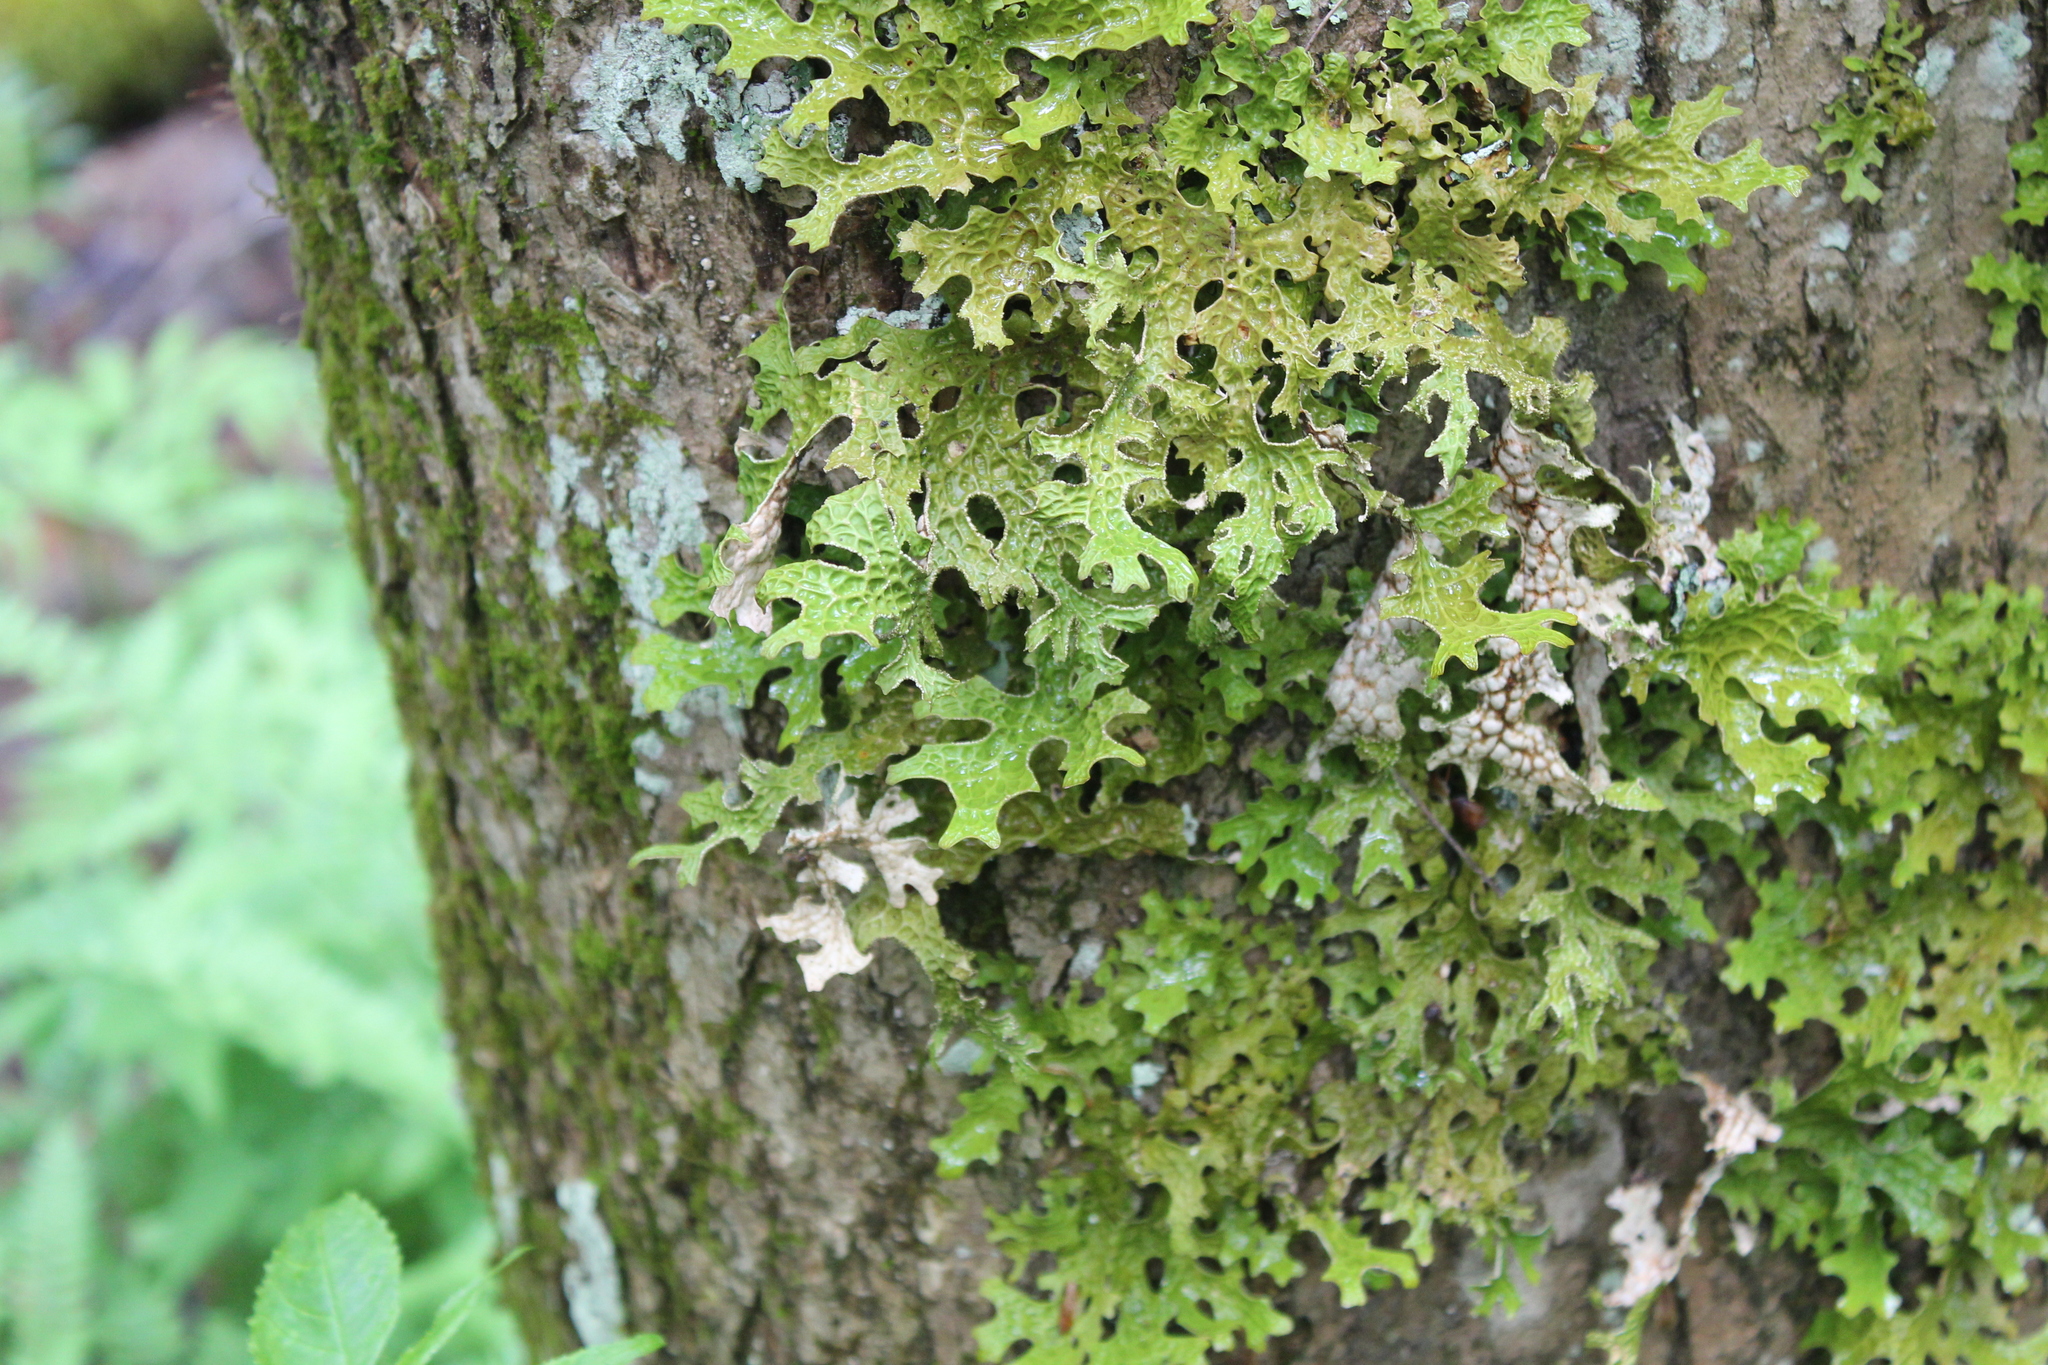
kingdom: Fungi
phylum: Ascomycota
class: Lecanoromycetes
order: Peltigerales
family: Lobariaceae
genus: Lobaria
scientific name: Lobaria pulmonaria
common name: Lungwort
